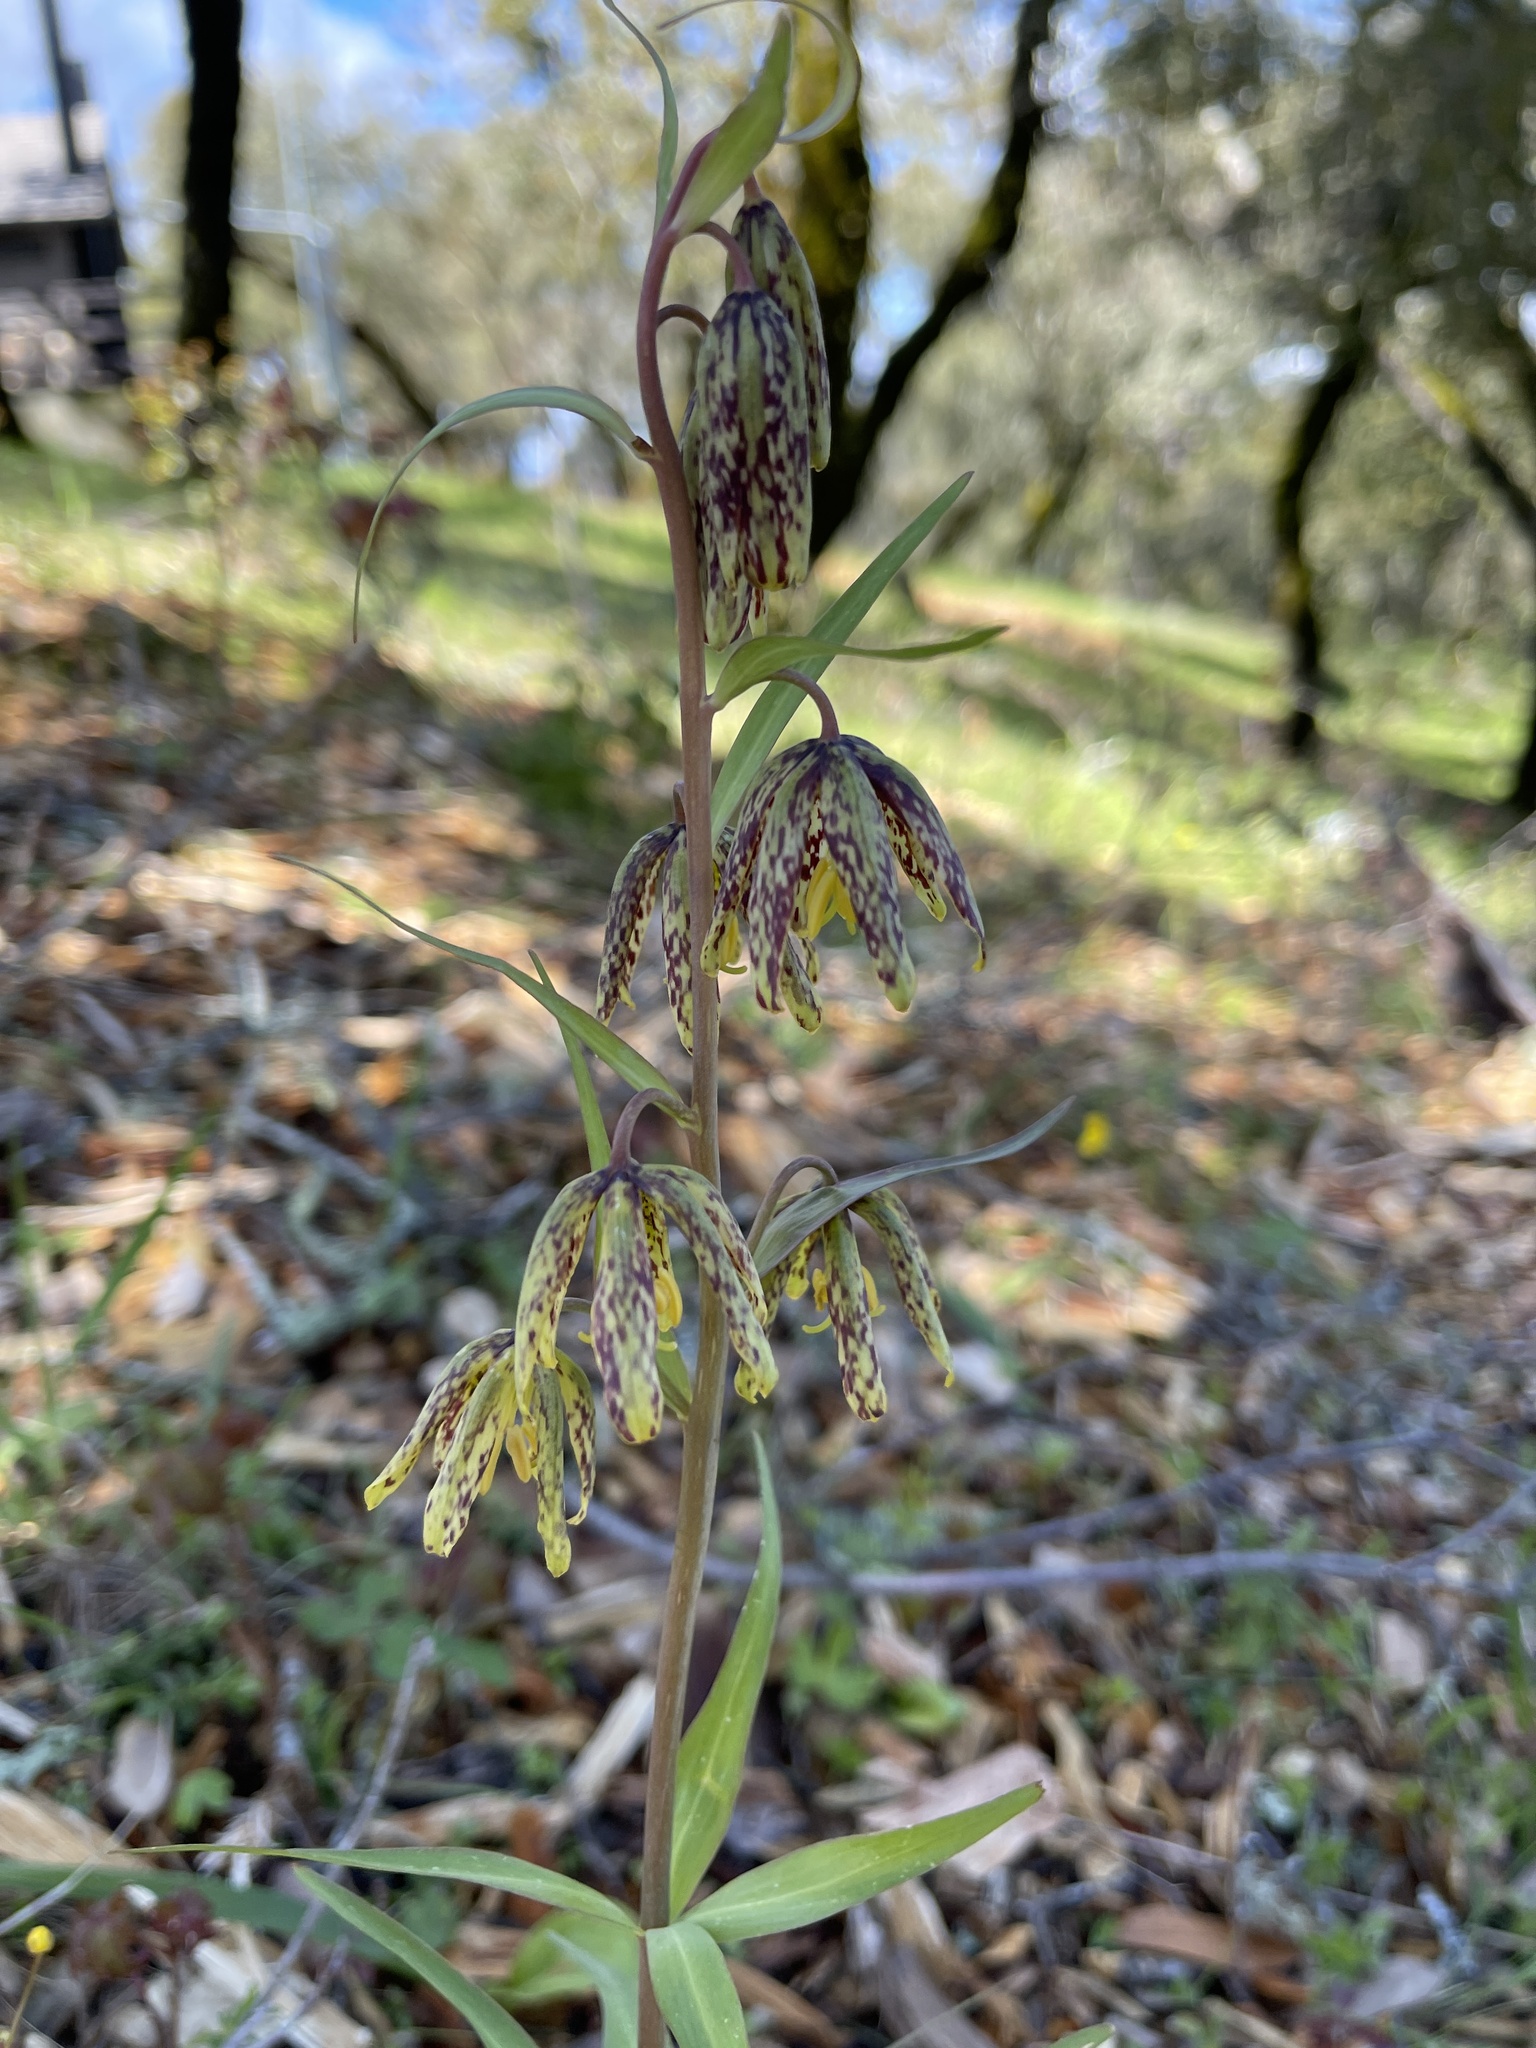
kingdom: Plantae
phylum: Tracheophyta
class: Liliopsida
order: Liliales
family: Liliaceae
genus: Fritillaria
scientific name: Fritillaria affinis
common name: Ojai fritillary
